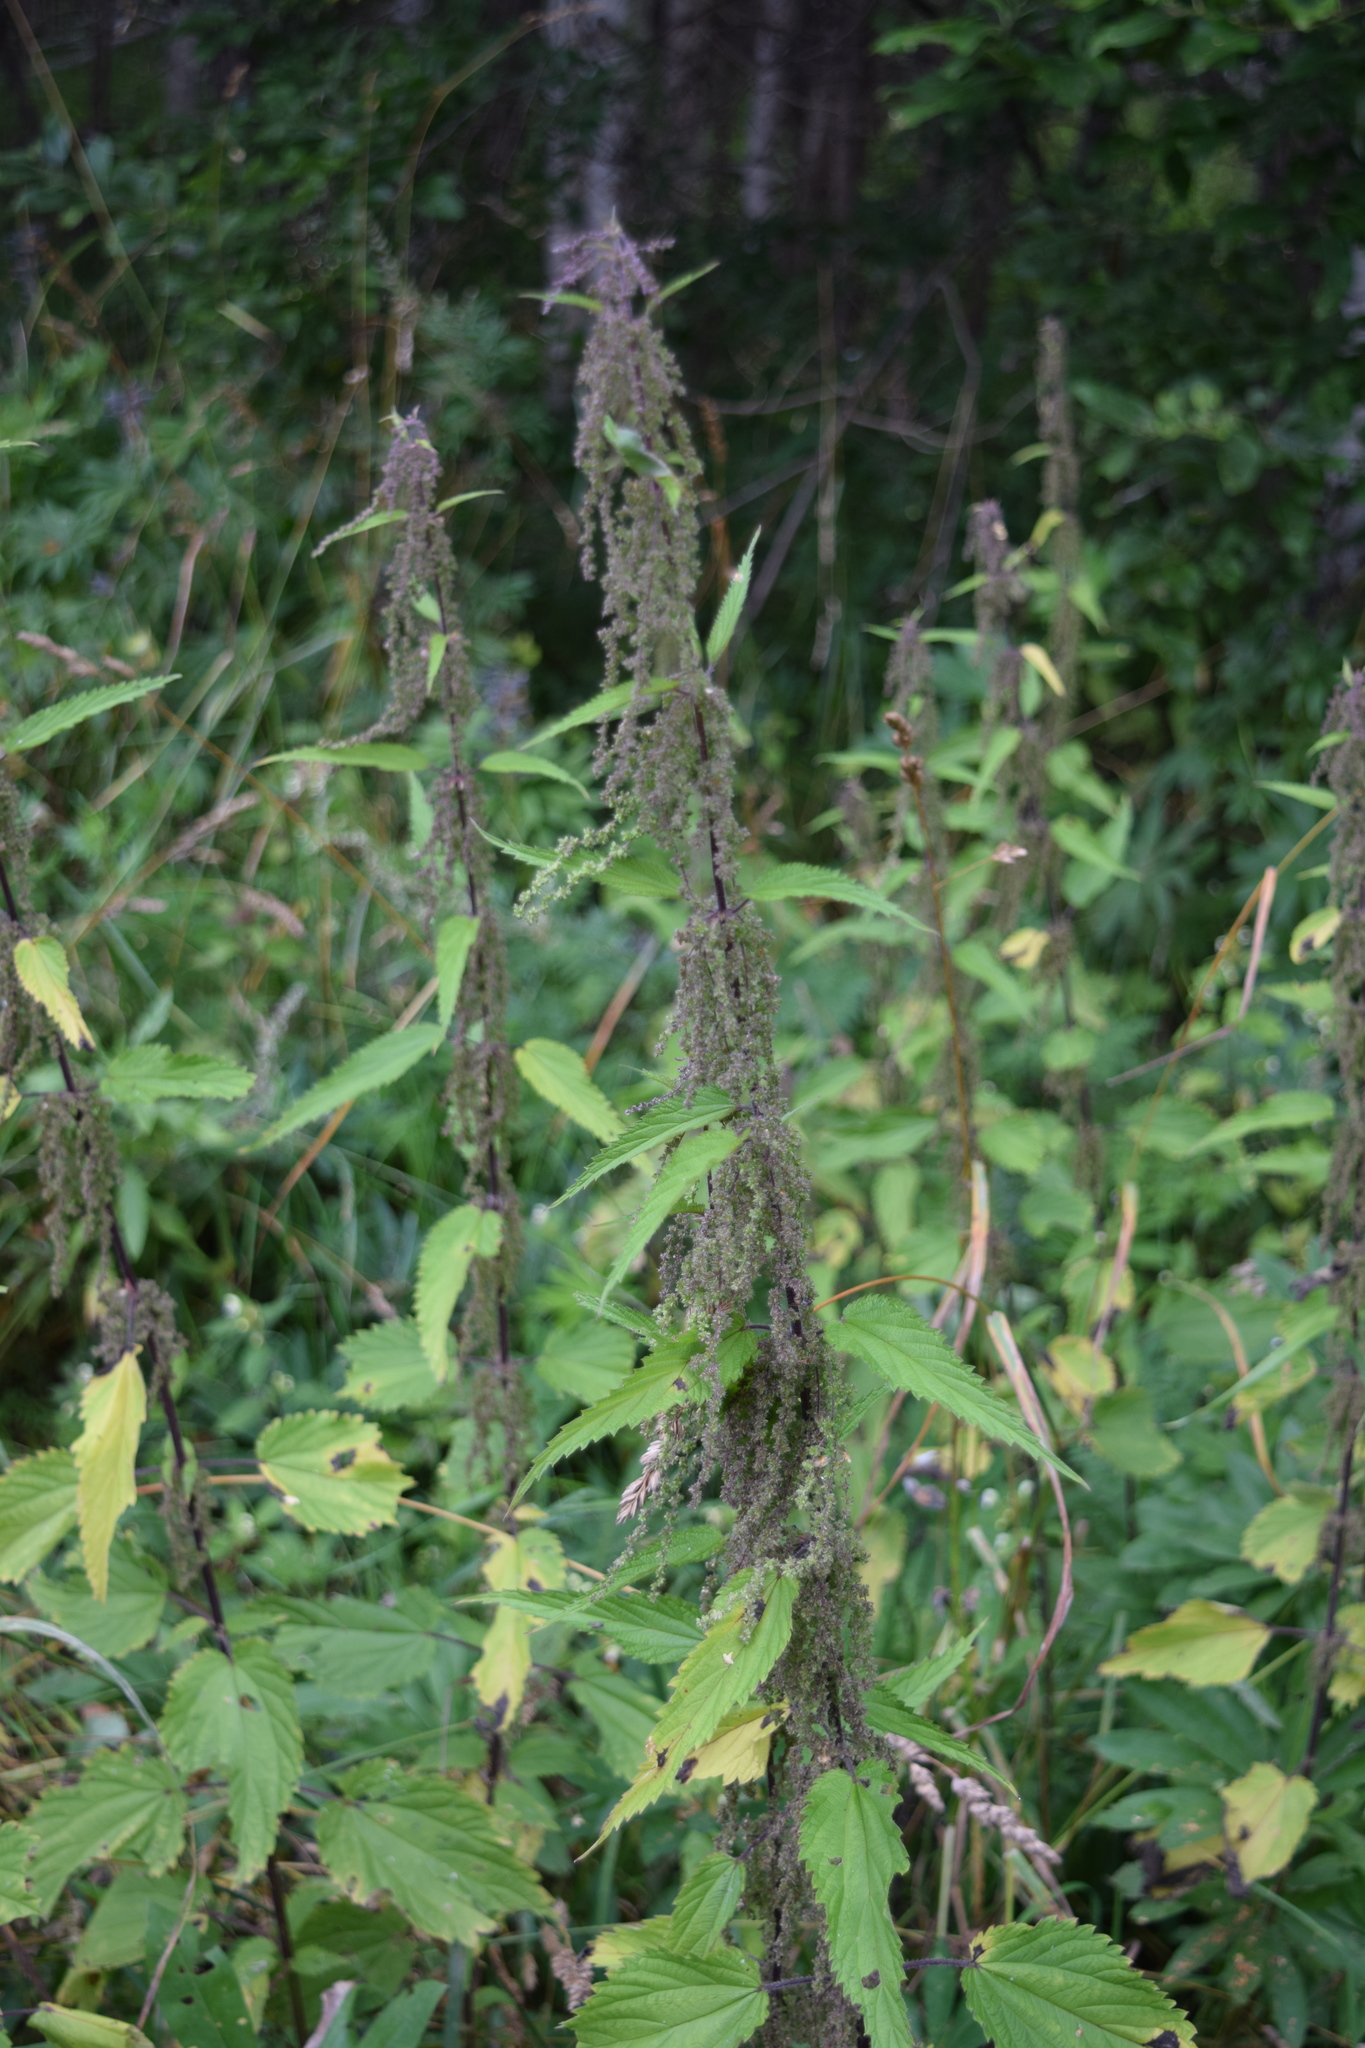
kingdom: Plantae
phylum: Tracheophyta
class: Magnoliopsida
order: Rosales
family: Urticaceae
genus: Urtica
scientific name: Urtica dioica
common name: Common nettle
